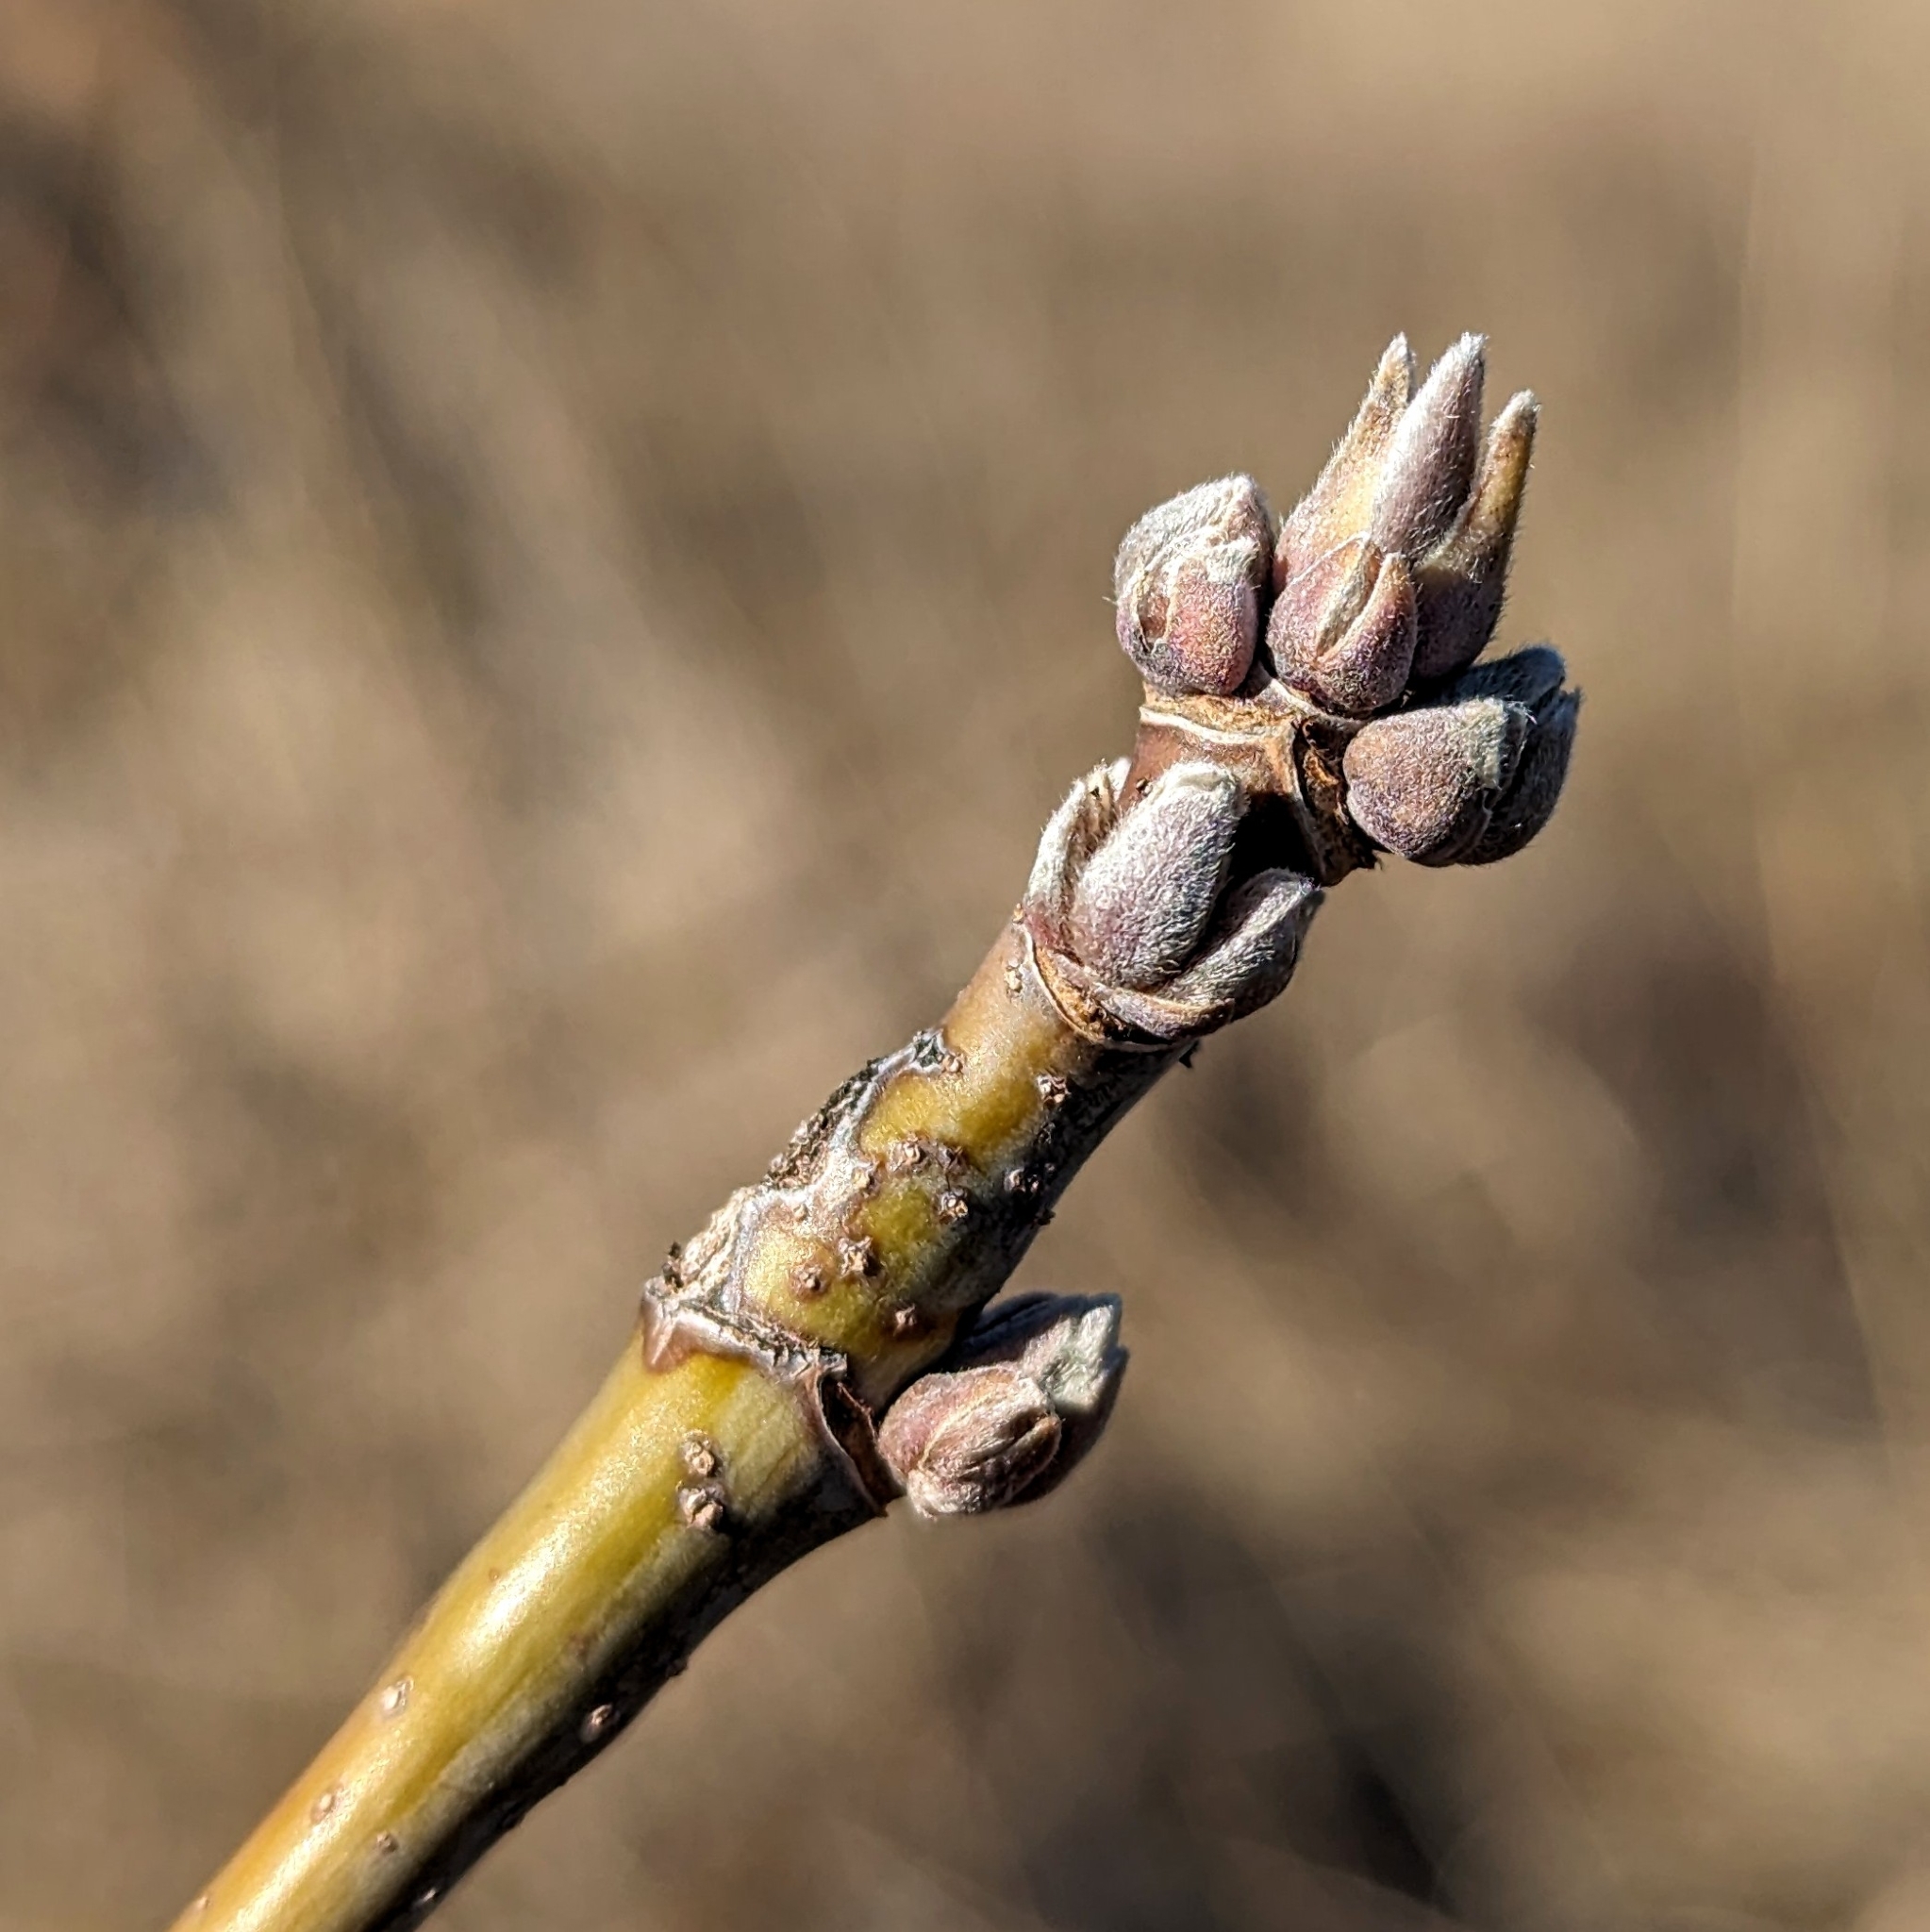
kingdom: Plantae
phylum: Tracheophyta
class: Magnoliopsida
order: Sapindales
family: Sapindaceae
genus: Acer
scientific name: Acer negundo
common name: Ashleaf maple
